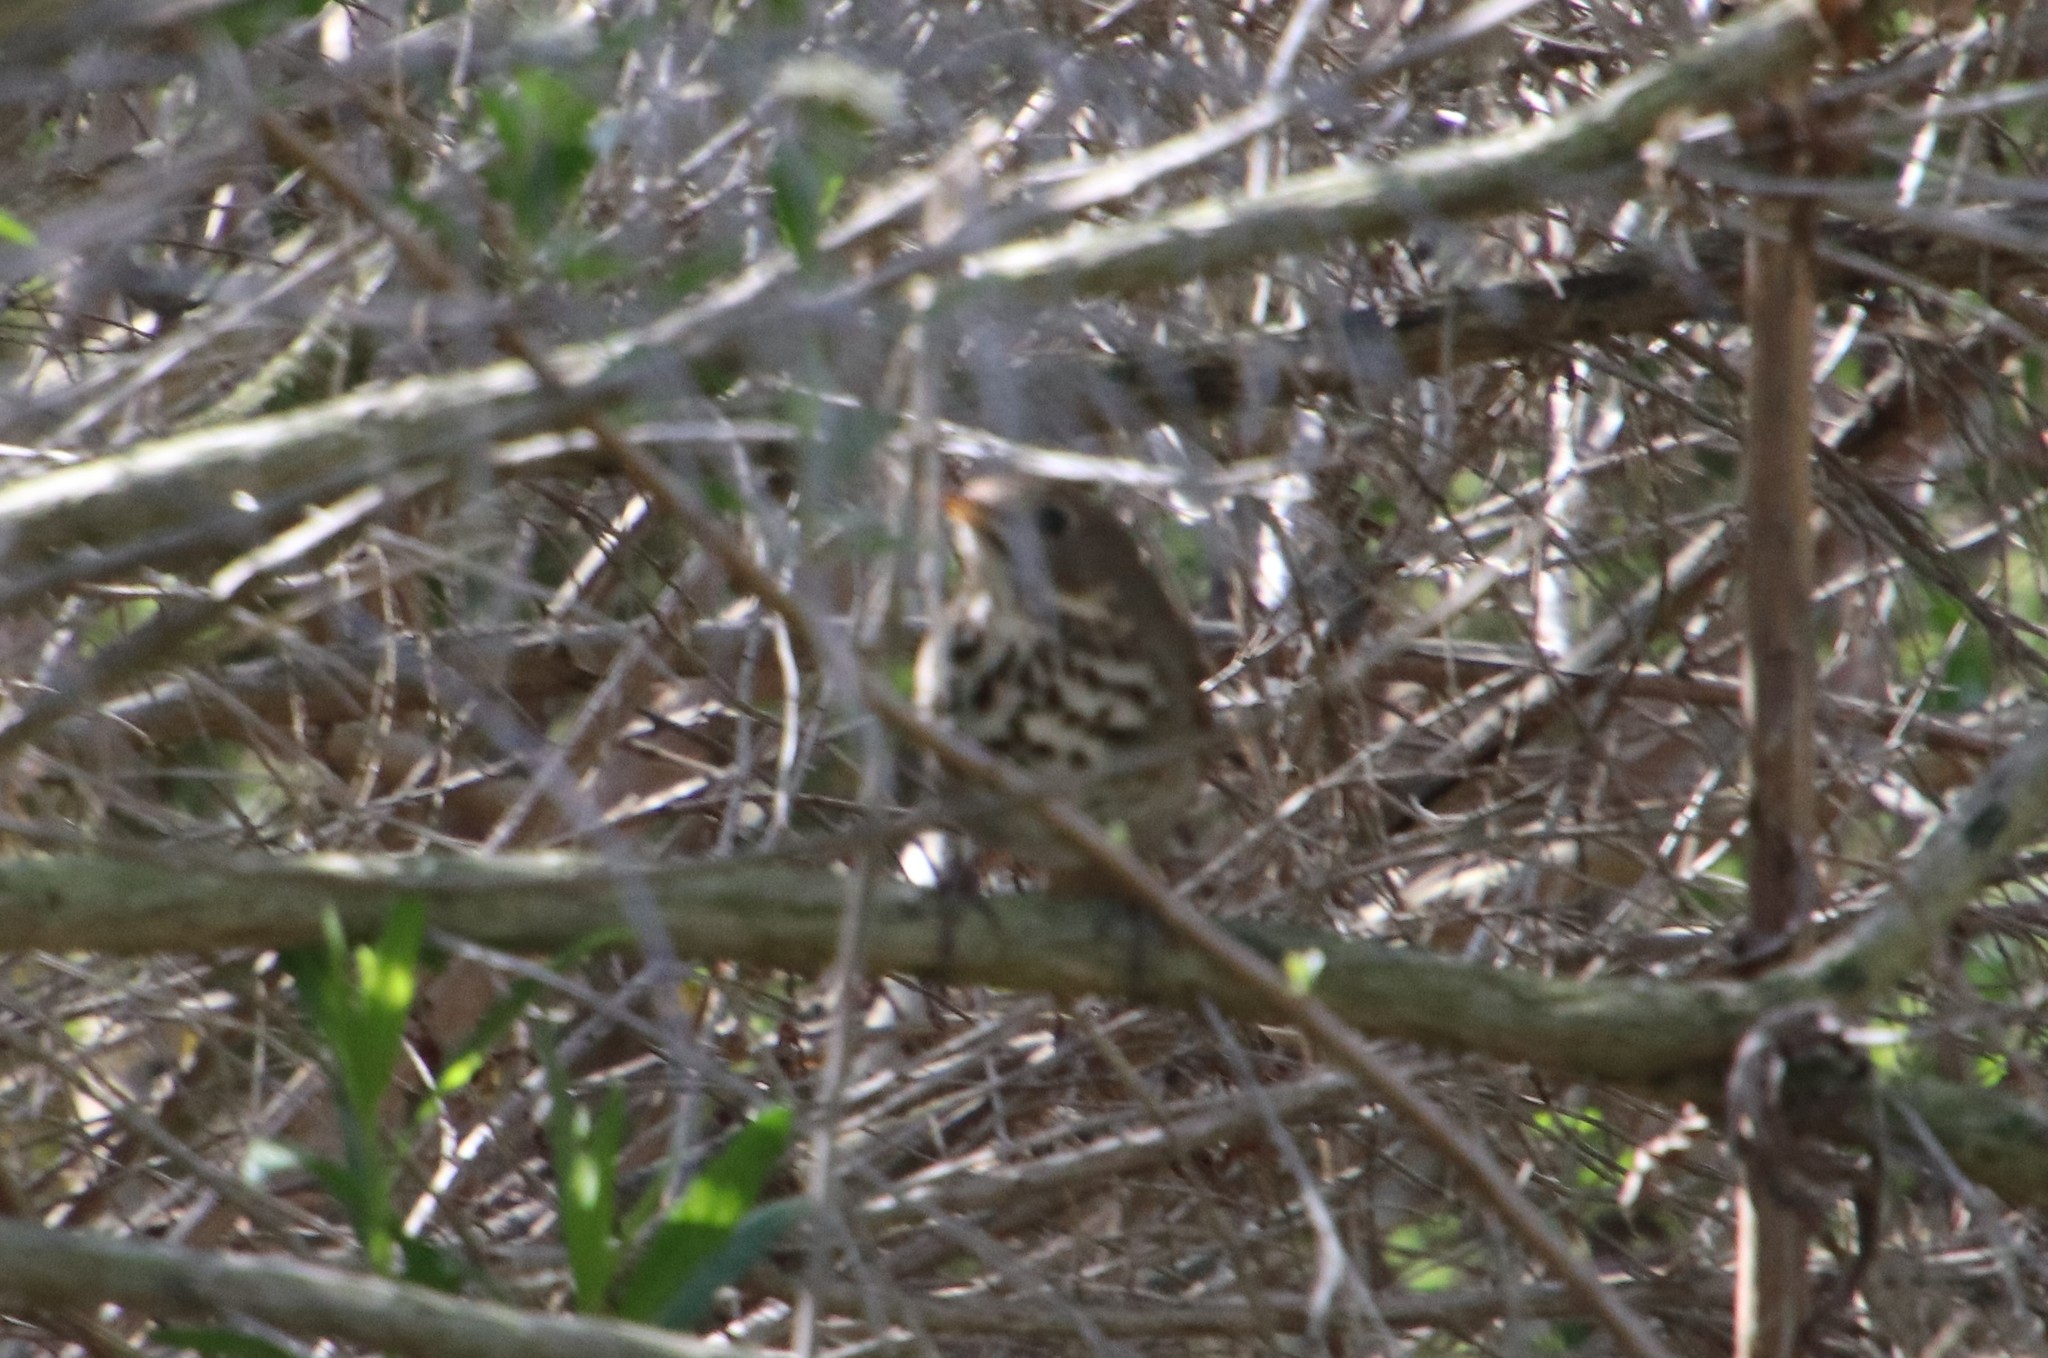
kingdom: Animalia
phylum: Chordata
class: Aves
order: Passeriformes
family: Turdidae
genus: Catharus
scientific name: Catharus guttatus
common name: Hermit thrush
